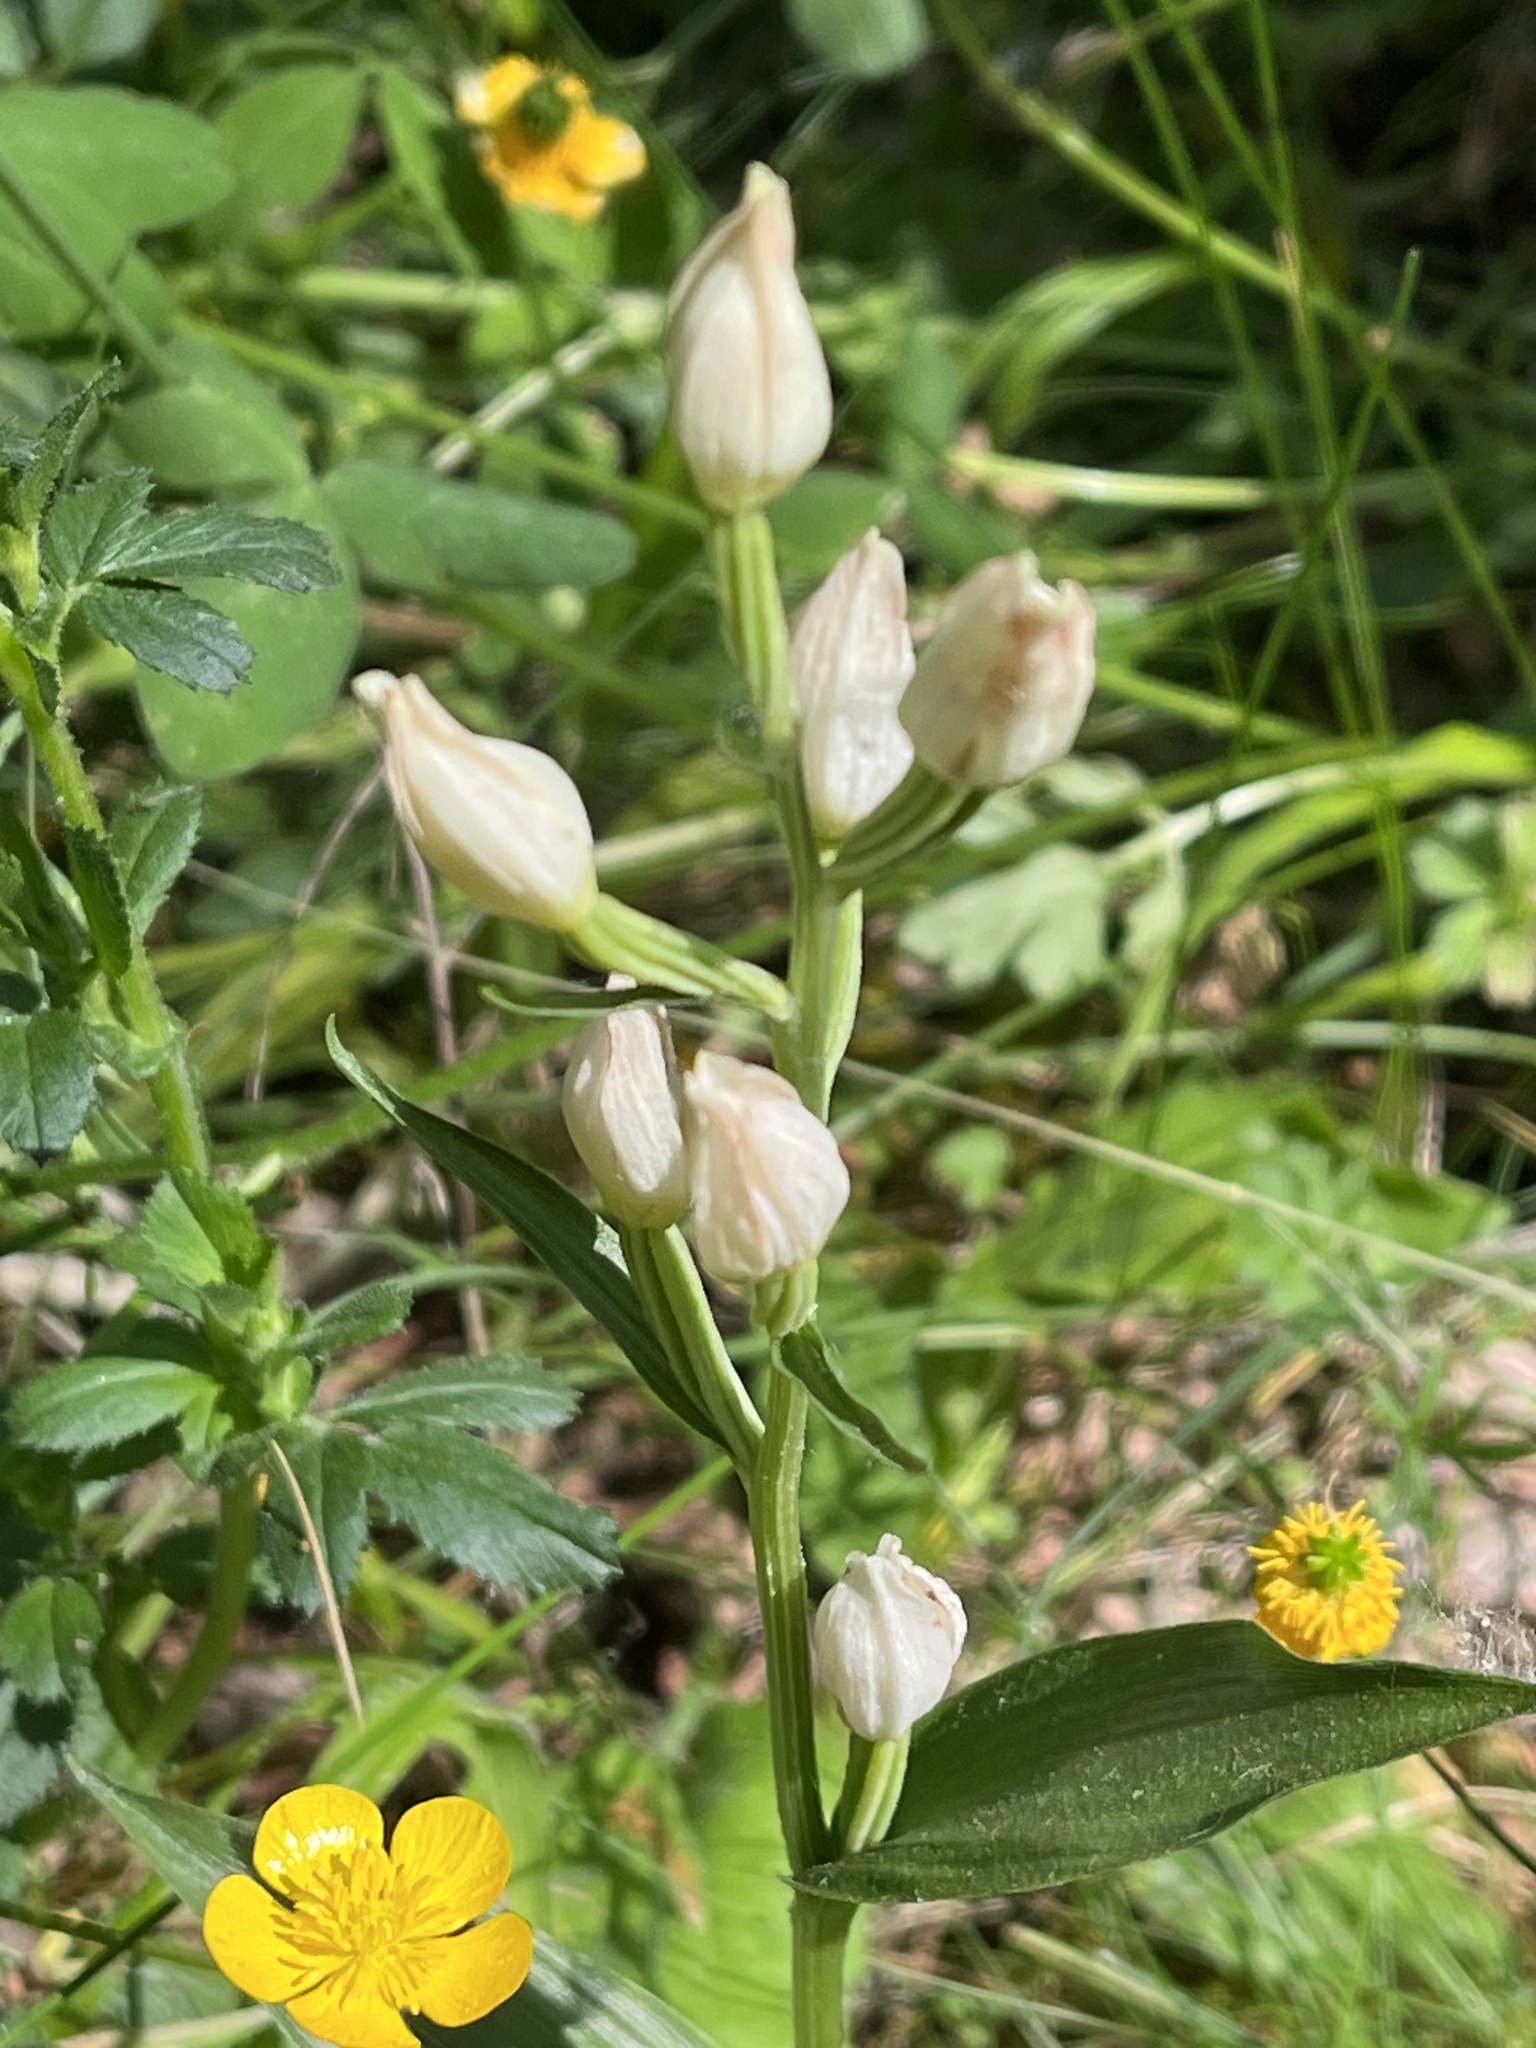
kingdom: Plantae
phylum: Tracheophyta
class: Liliopsida
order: Asparagales
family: Orchidaceae
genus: Cephalanthera
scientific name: Cephalanthera damasonium
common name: White helleborine
